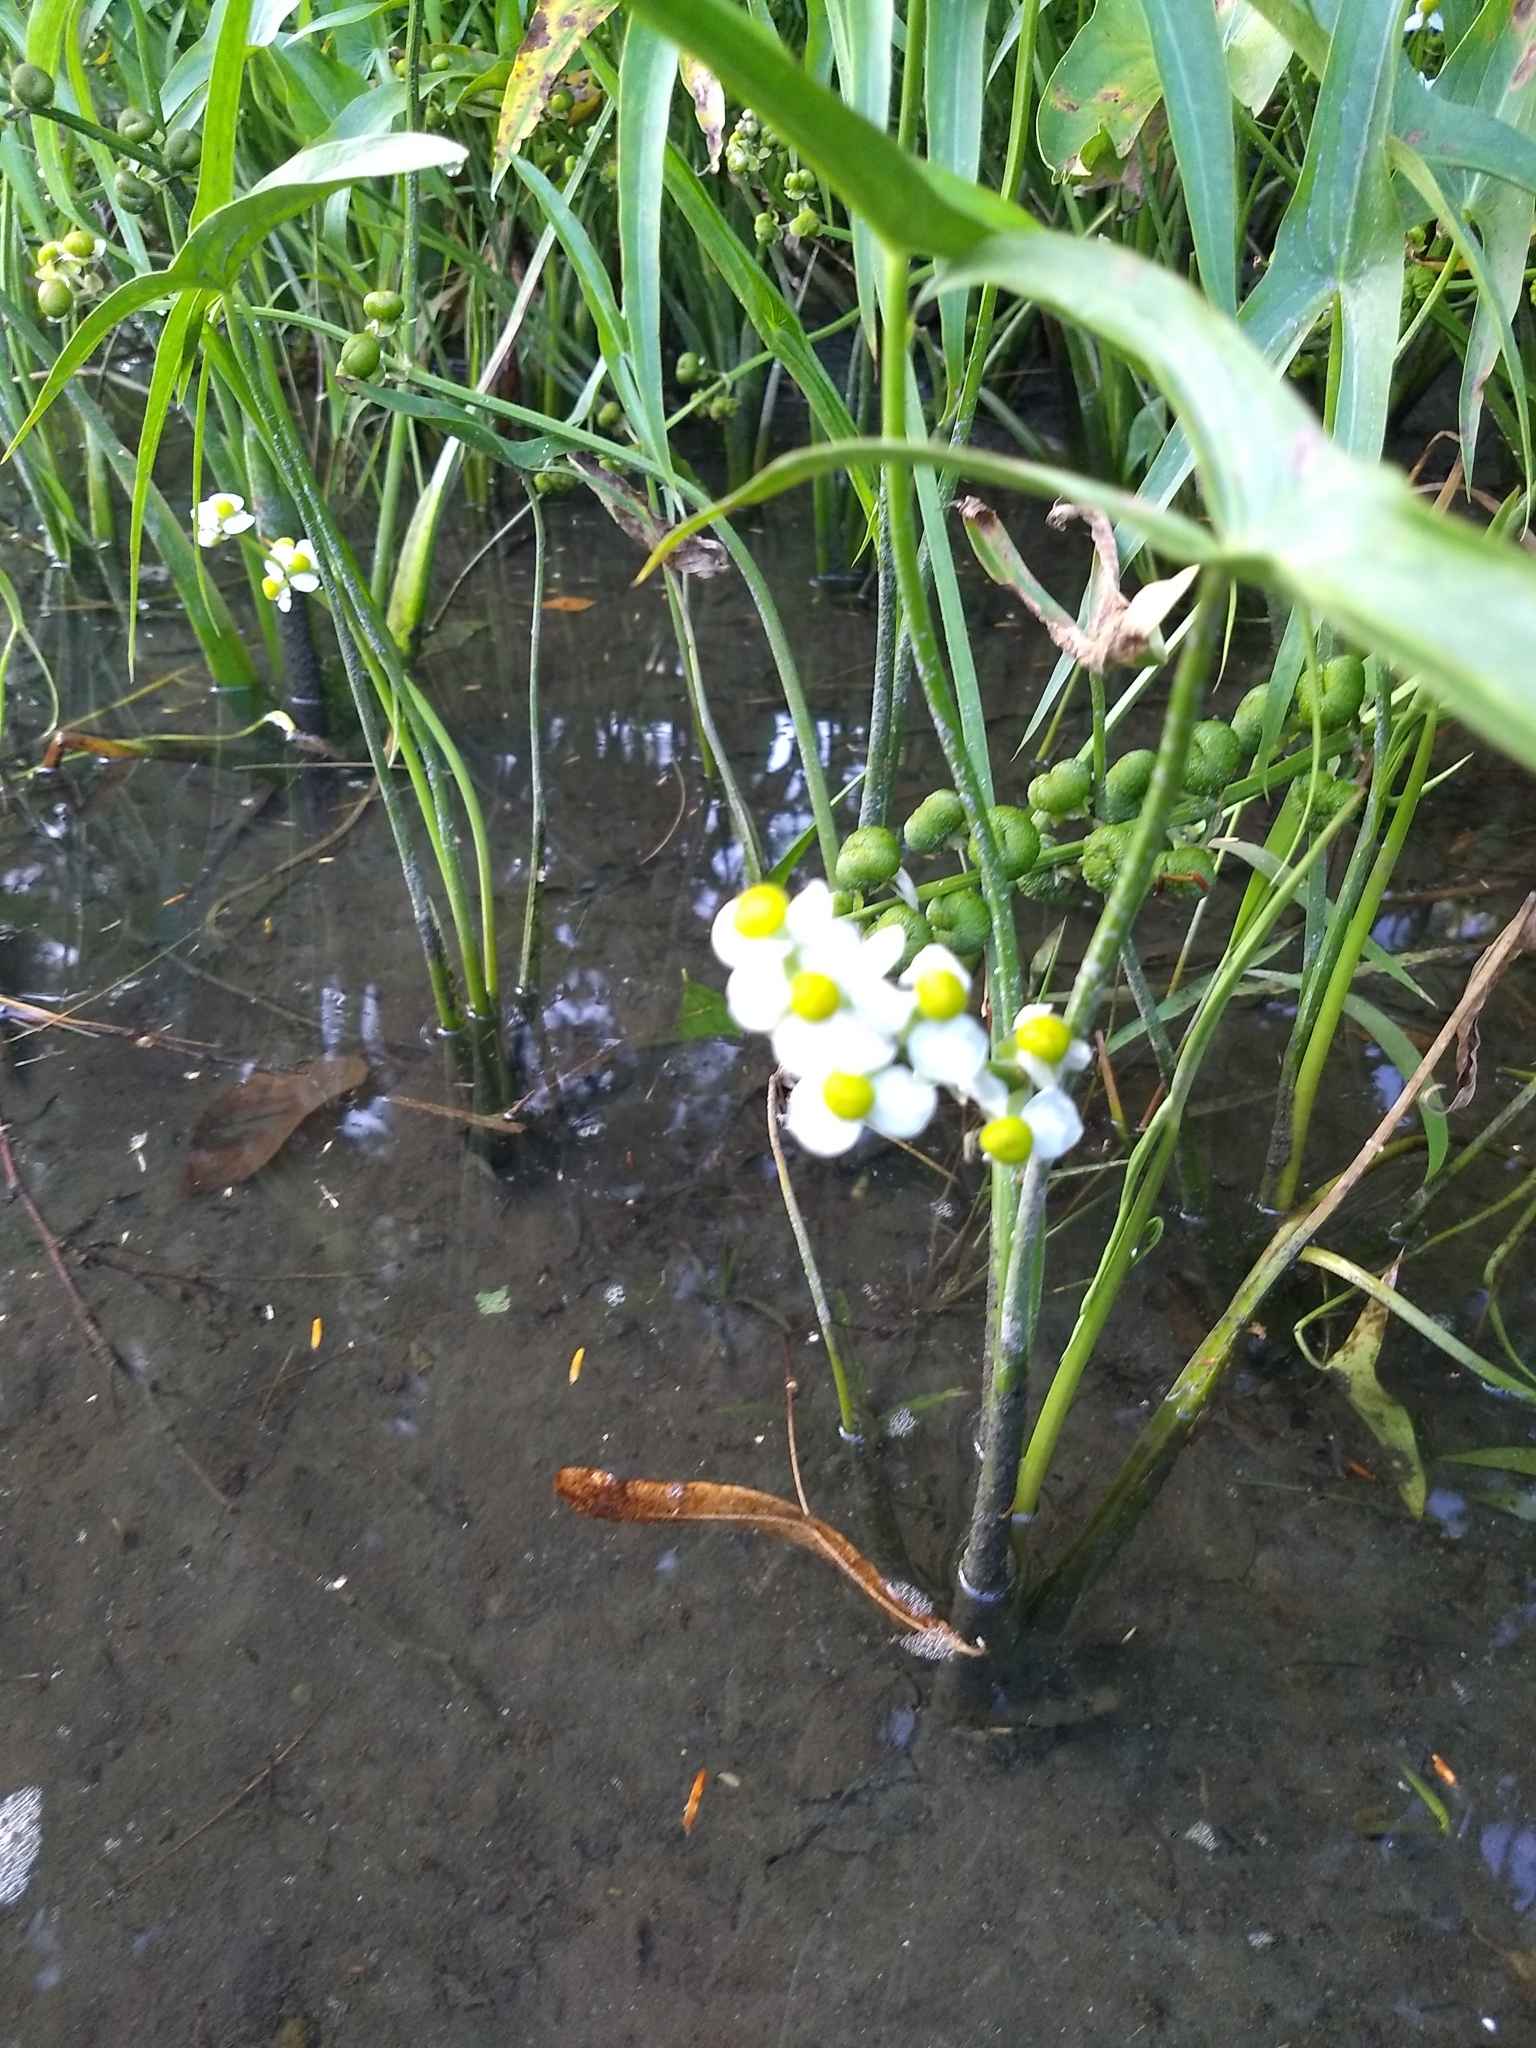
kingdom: Plantae
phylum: Tracheophyta
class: Liliopsida
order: Alismatales
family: Alismataceae
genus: Sagittaria
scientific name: Sagittaria latifolia
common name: Duck-potato
